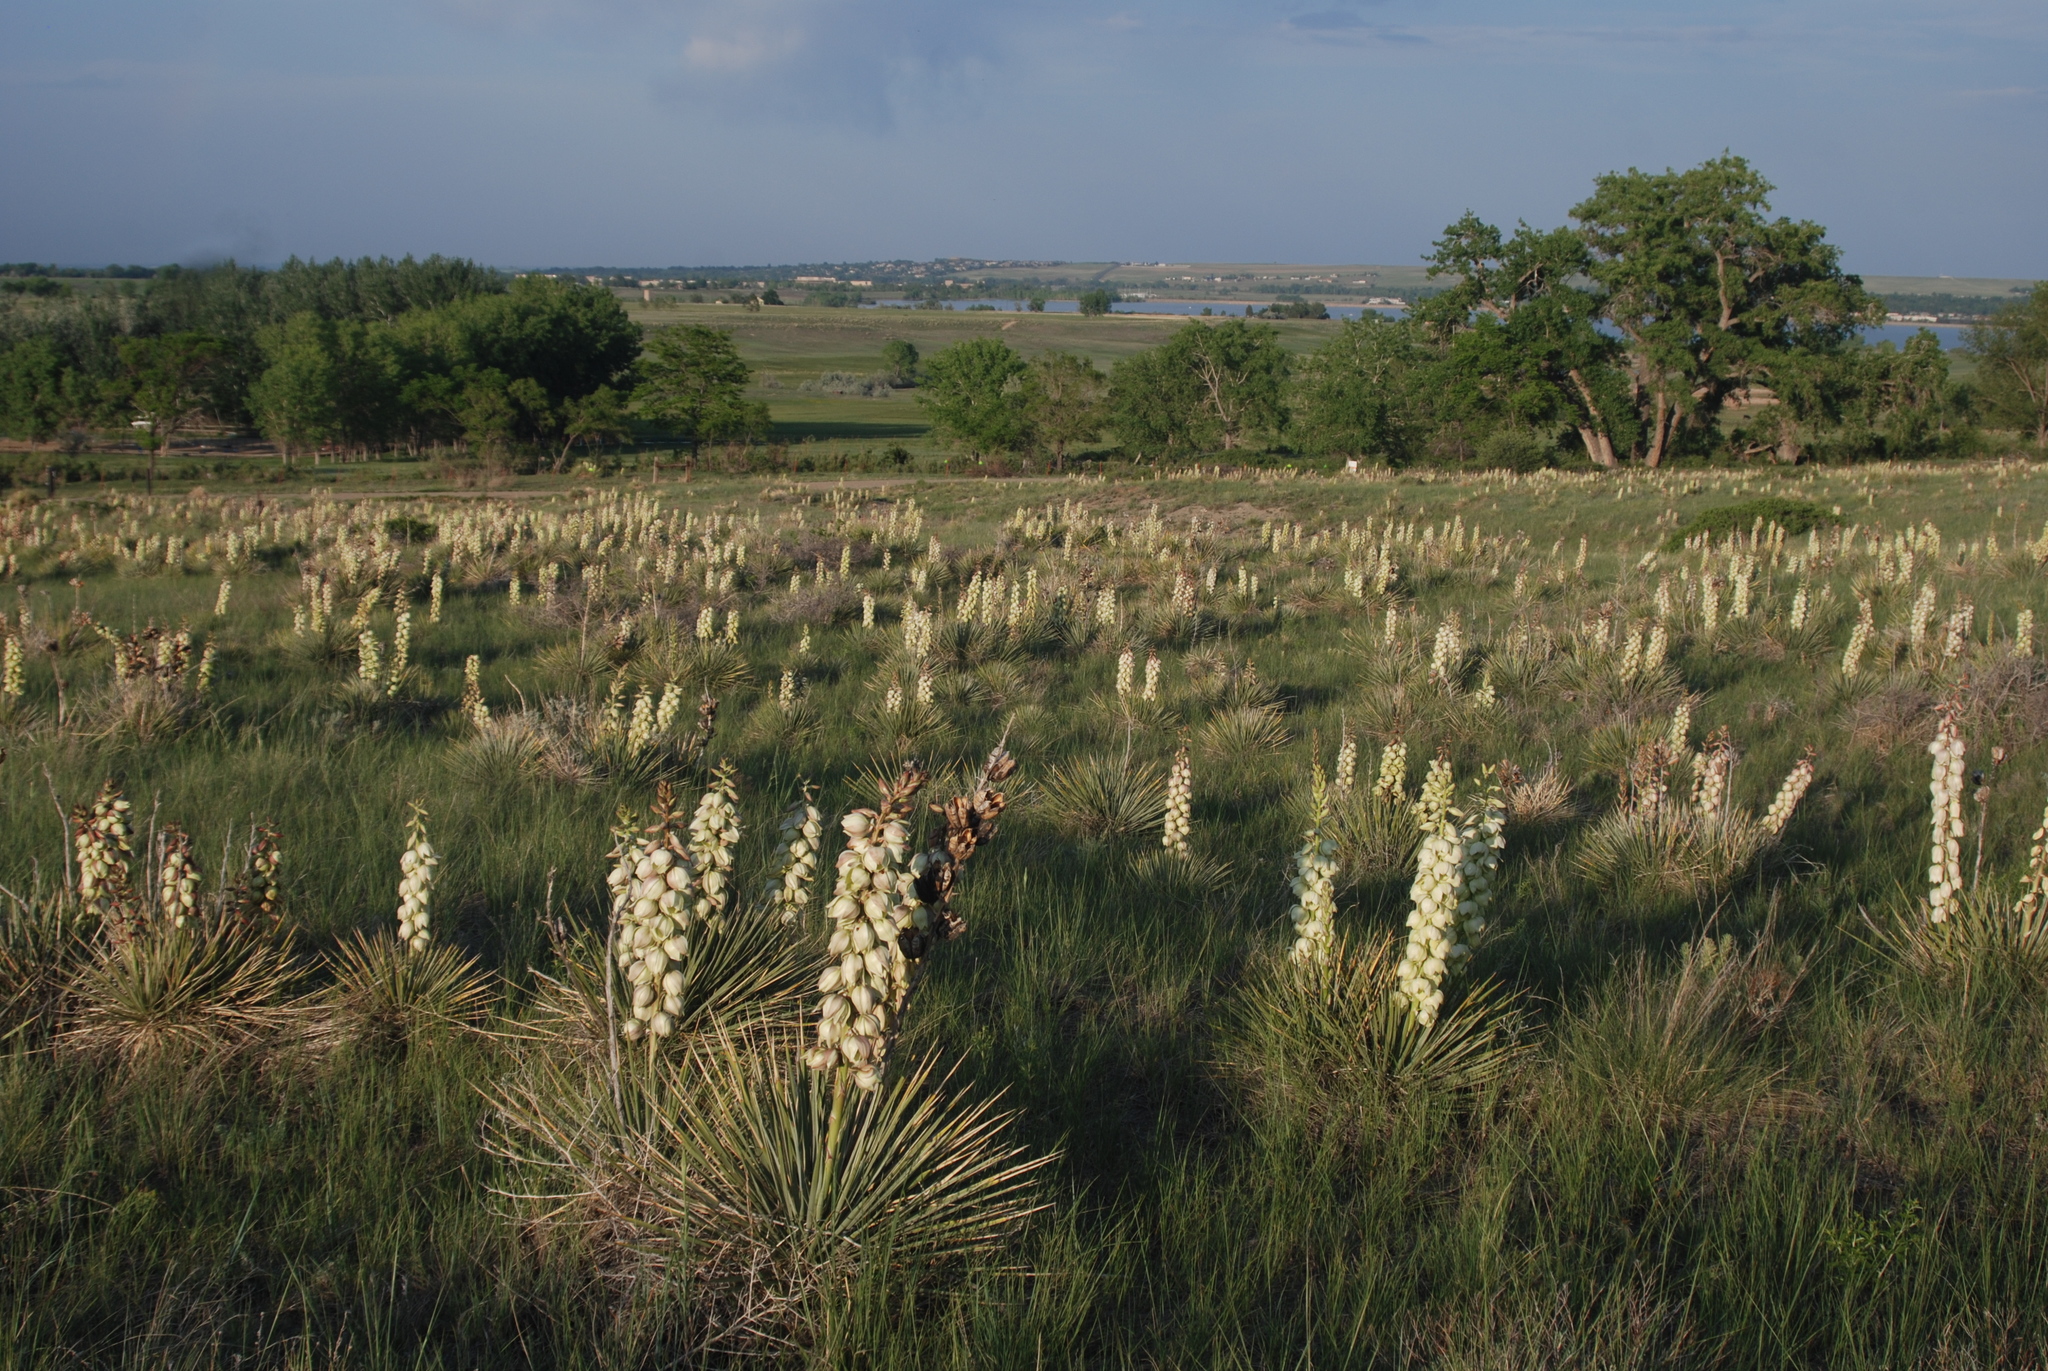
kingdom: Plantae
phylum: Tracheophyta
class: Liliopsida
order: Asparagales
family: Asparagaceae
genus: Yucca
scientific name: Yucca glauca
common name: Great plains yucca
